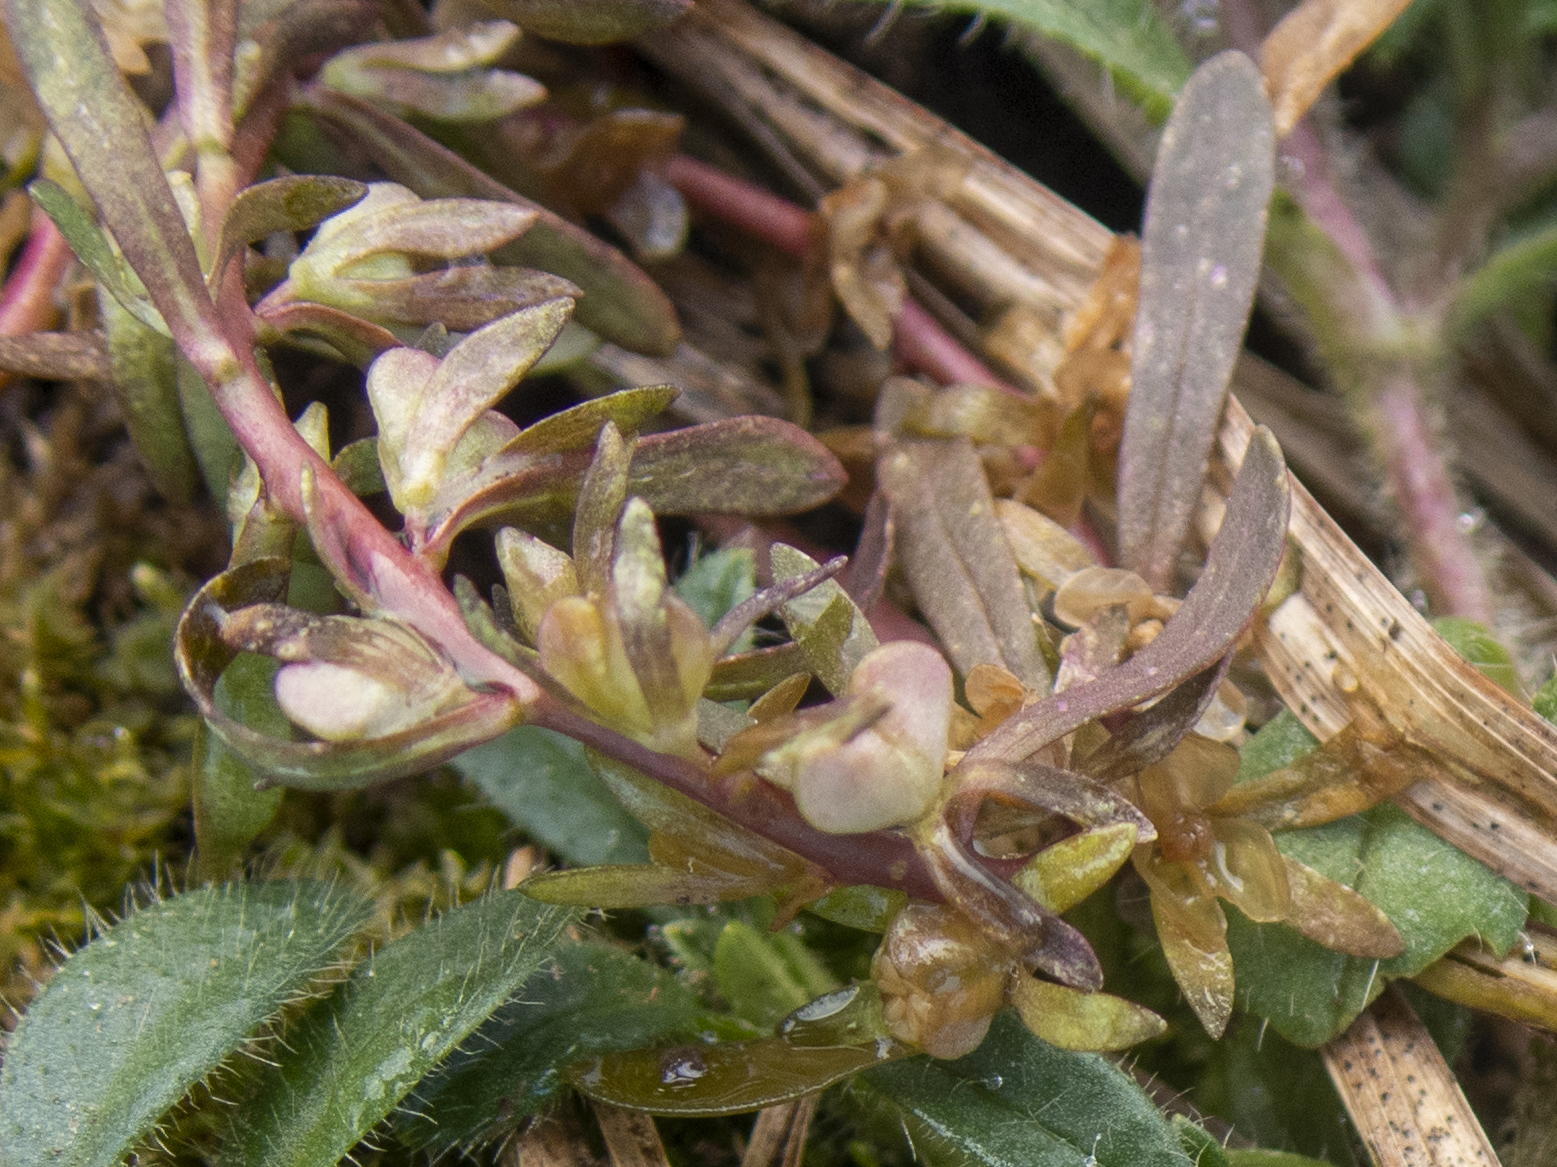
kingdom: Plantae
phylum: Tracheophyta
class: Magnoliopsida
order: Lamiales
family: Plantaginaceae
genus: Veronica
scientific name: Veronica peregrina
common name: Neckweed
